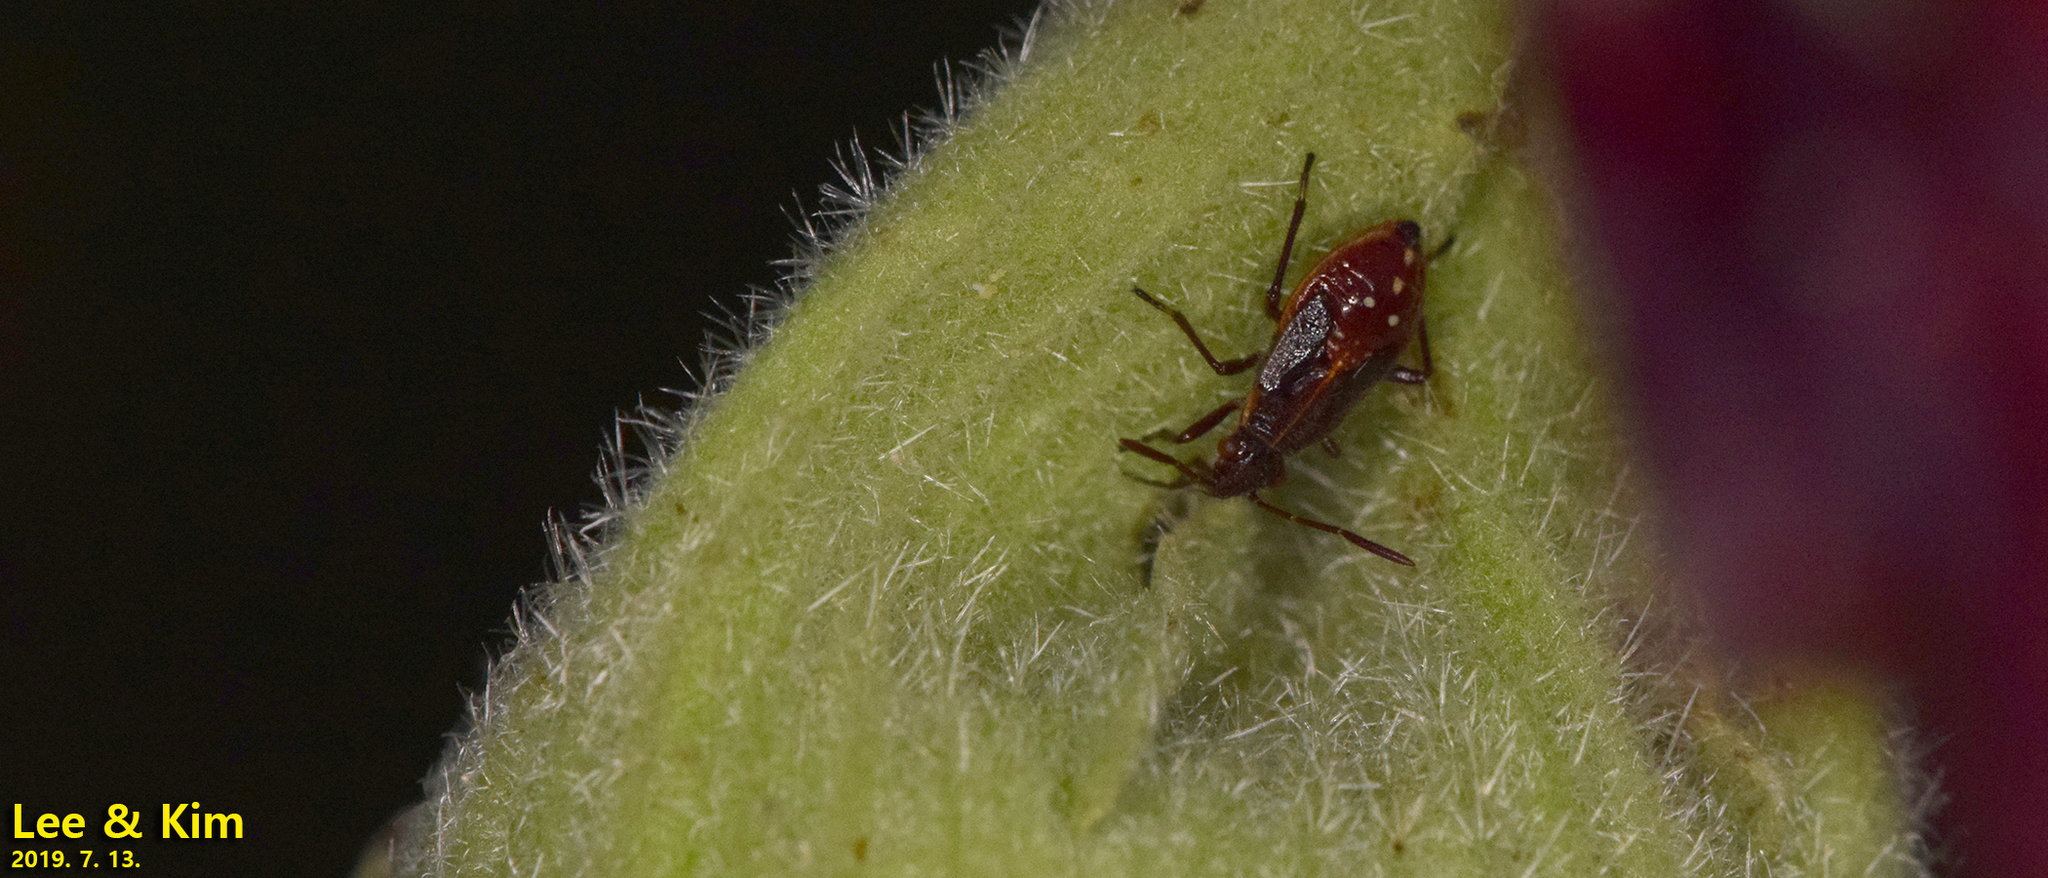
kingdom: Animalia
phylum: Arthropoda
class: Insecta
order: Hemiptera
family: Rhopalidae
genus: Liorhyssus
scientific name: Liorhyssus hyalinus
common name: Scentless plant bug
